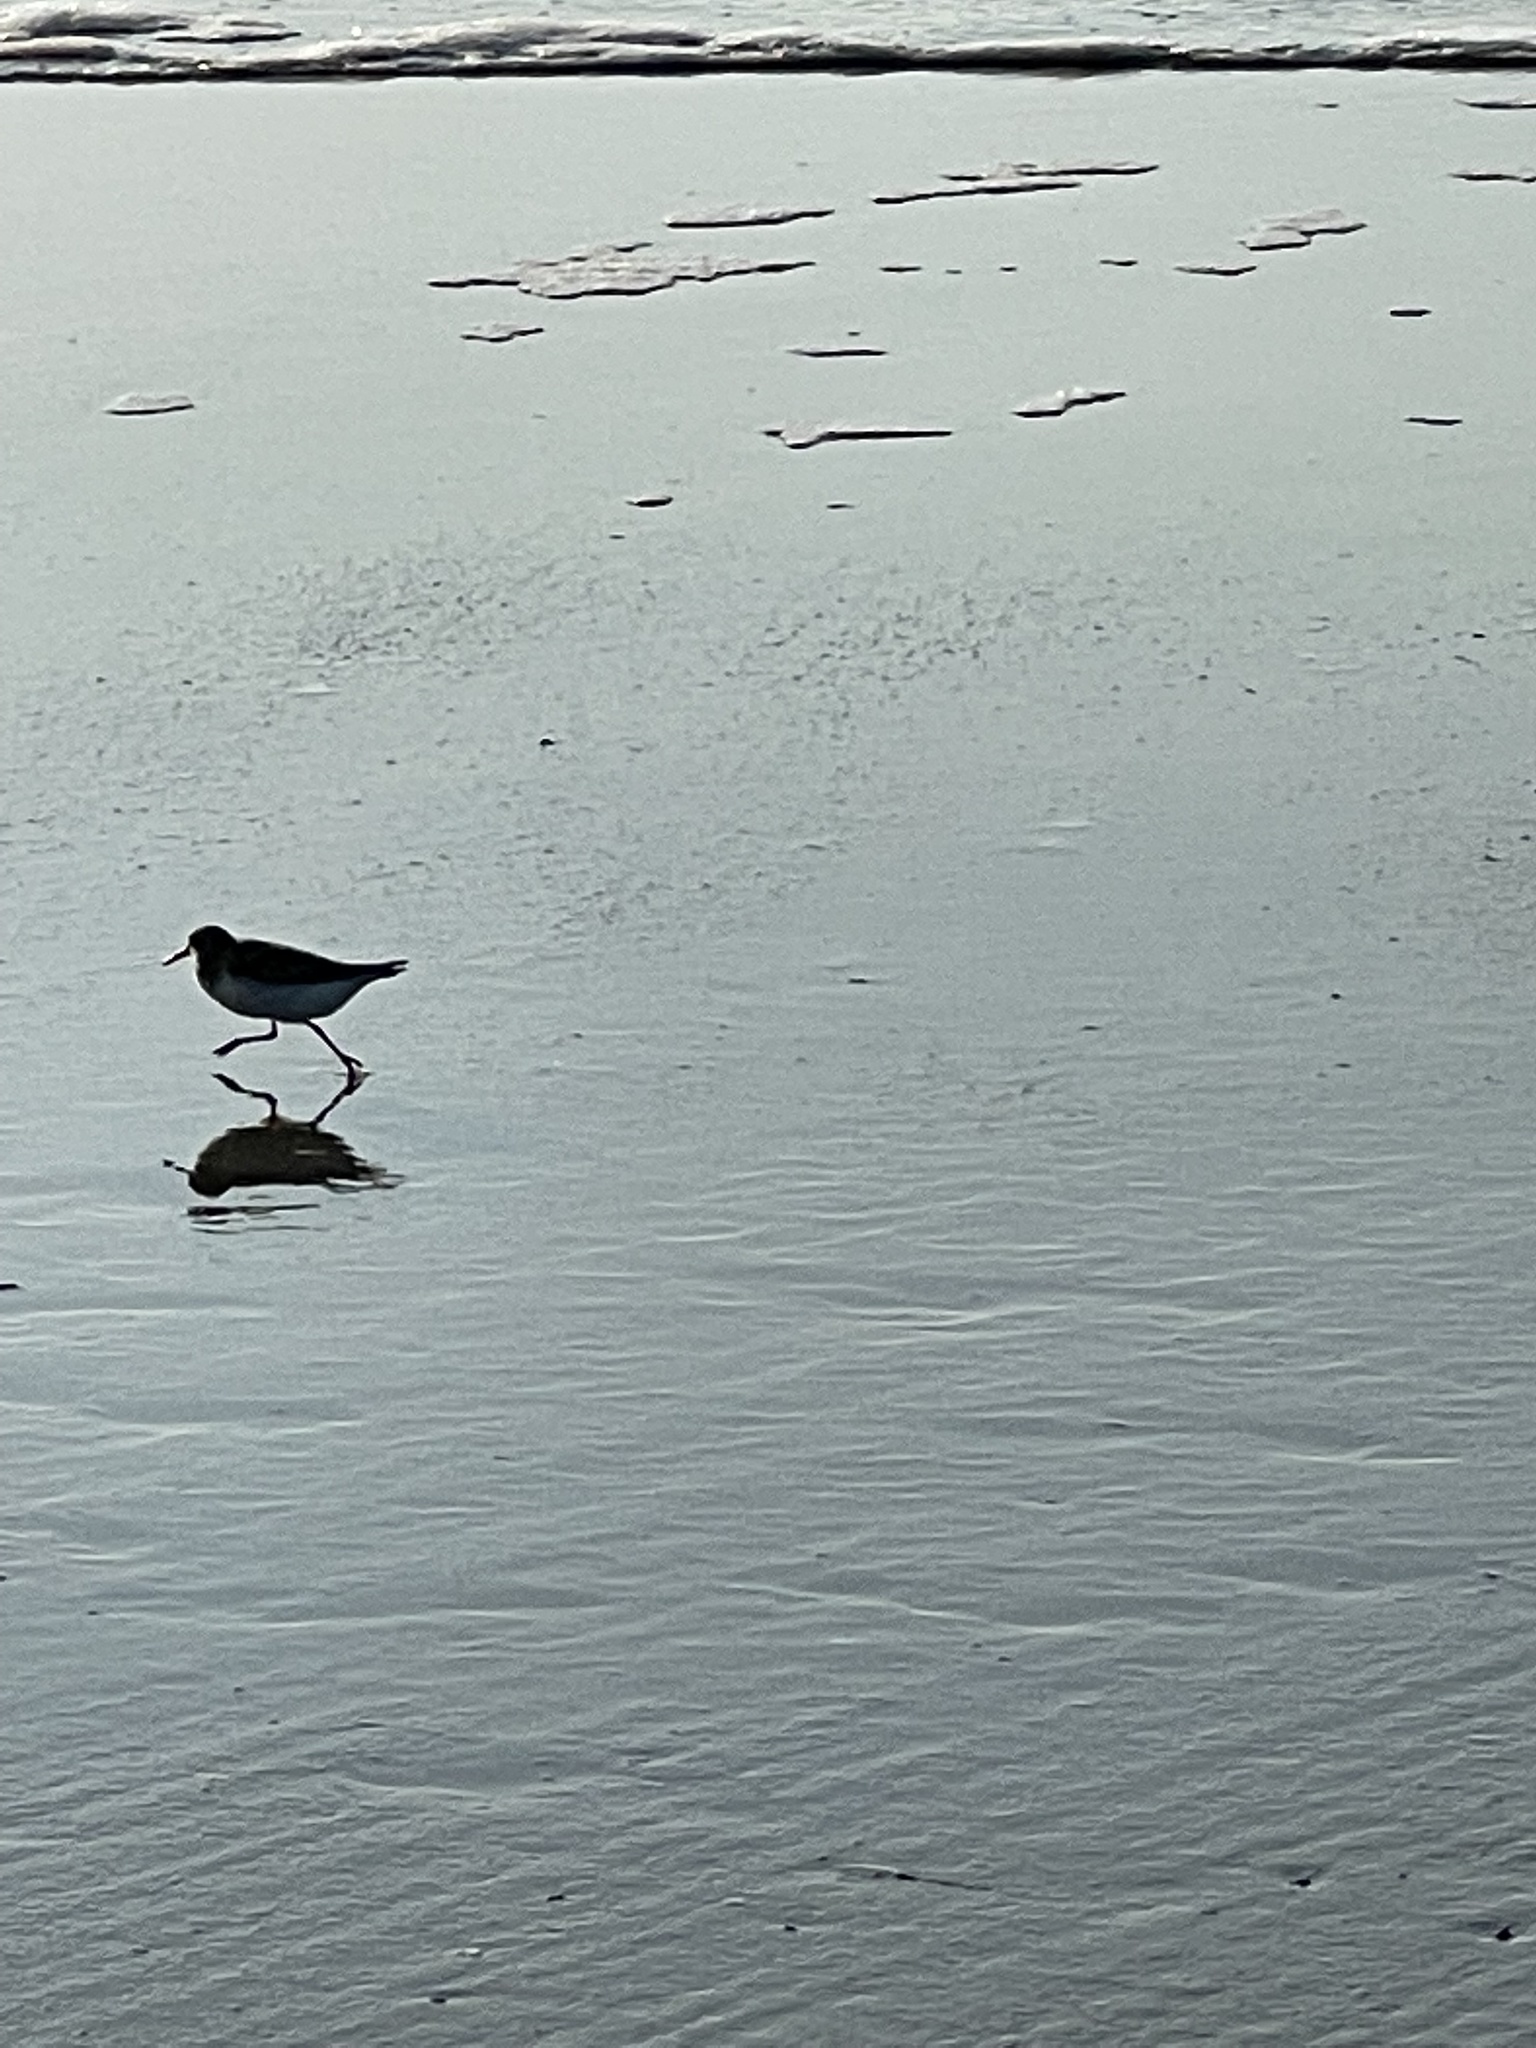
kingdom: Animalia
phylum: Chordata
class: Aves
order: Charadriiformes
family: Scolopacidae
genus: Calidris
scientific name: Calidris alba
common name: Sanderling
